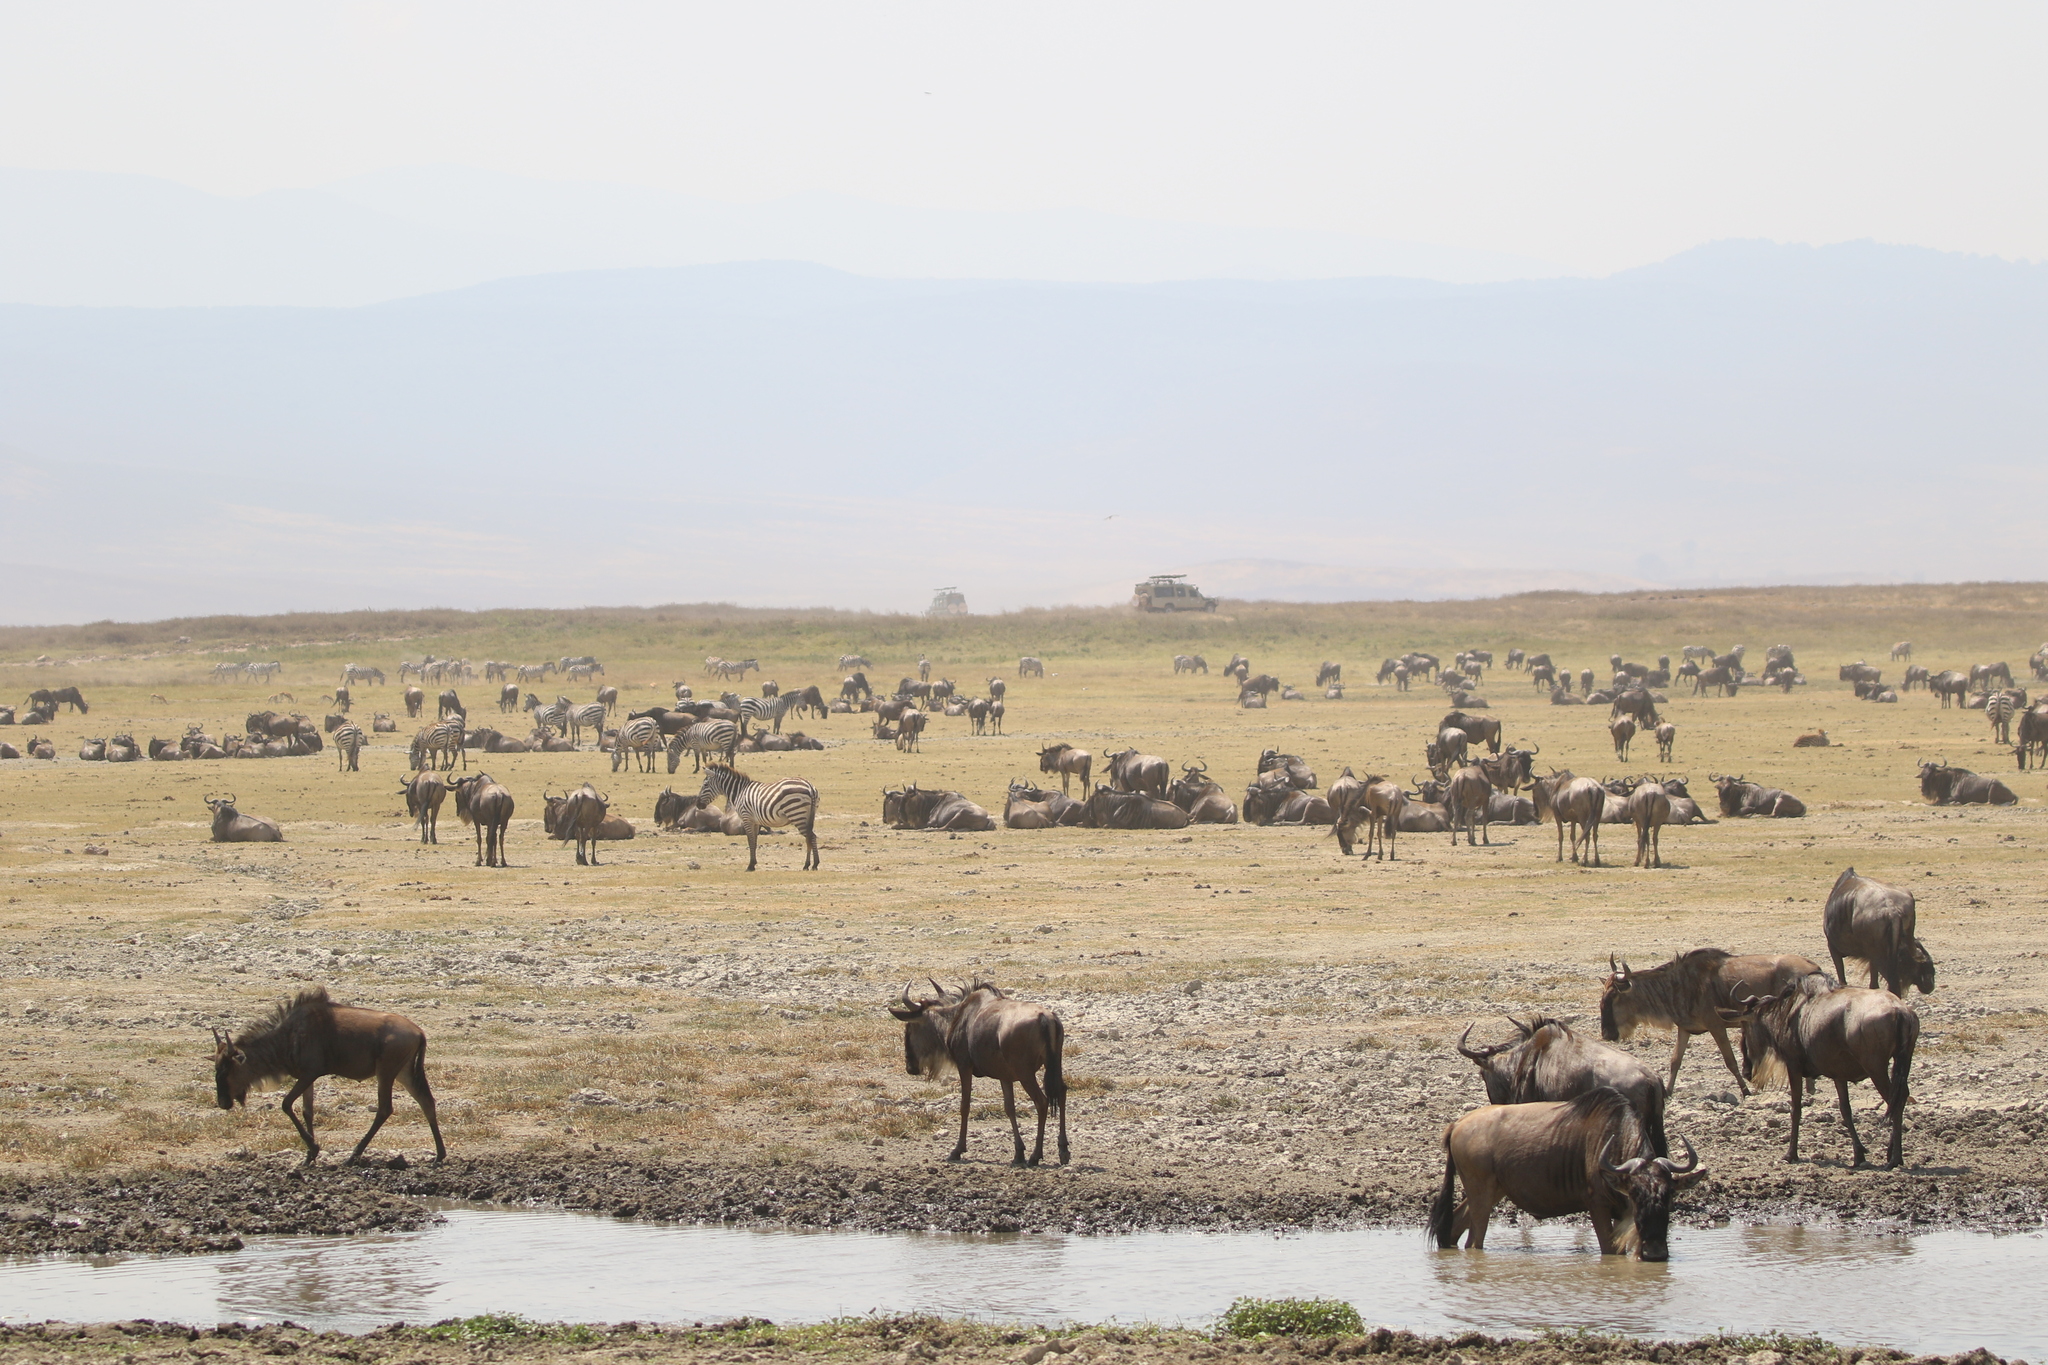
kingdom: Animalia
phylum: Chordata
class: Mammalia
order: Artiodactyla
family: Bovidae
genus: Connochaetes
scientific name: Connochaetes taurinus
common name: Blue wildebeest
